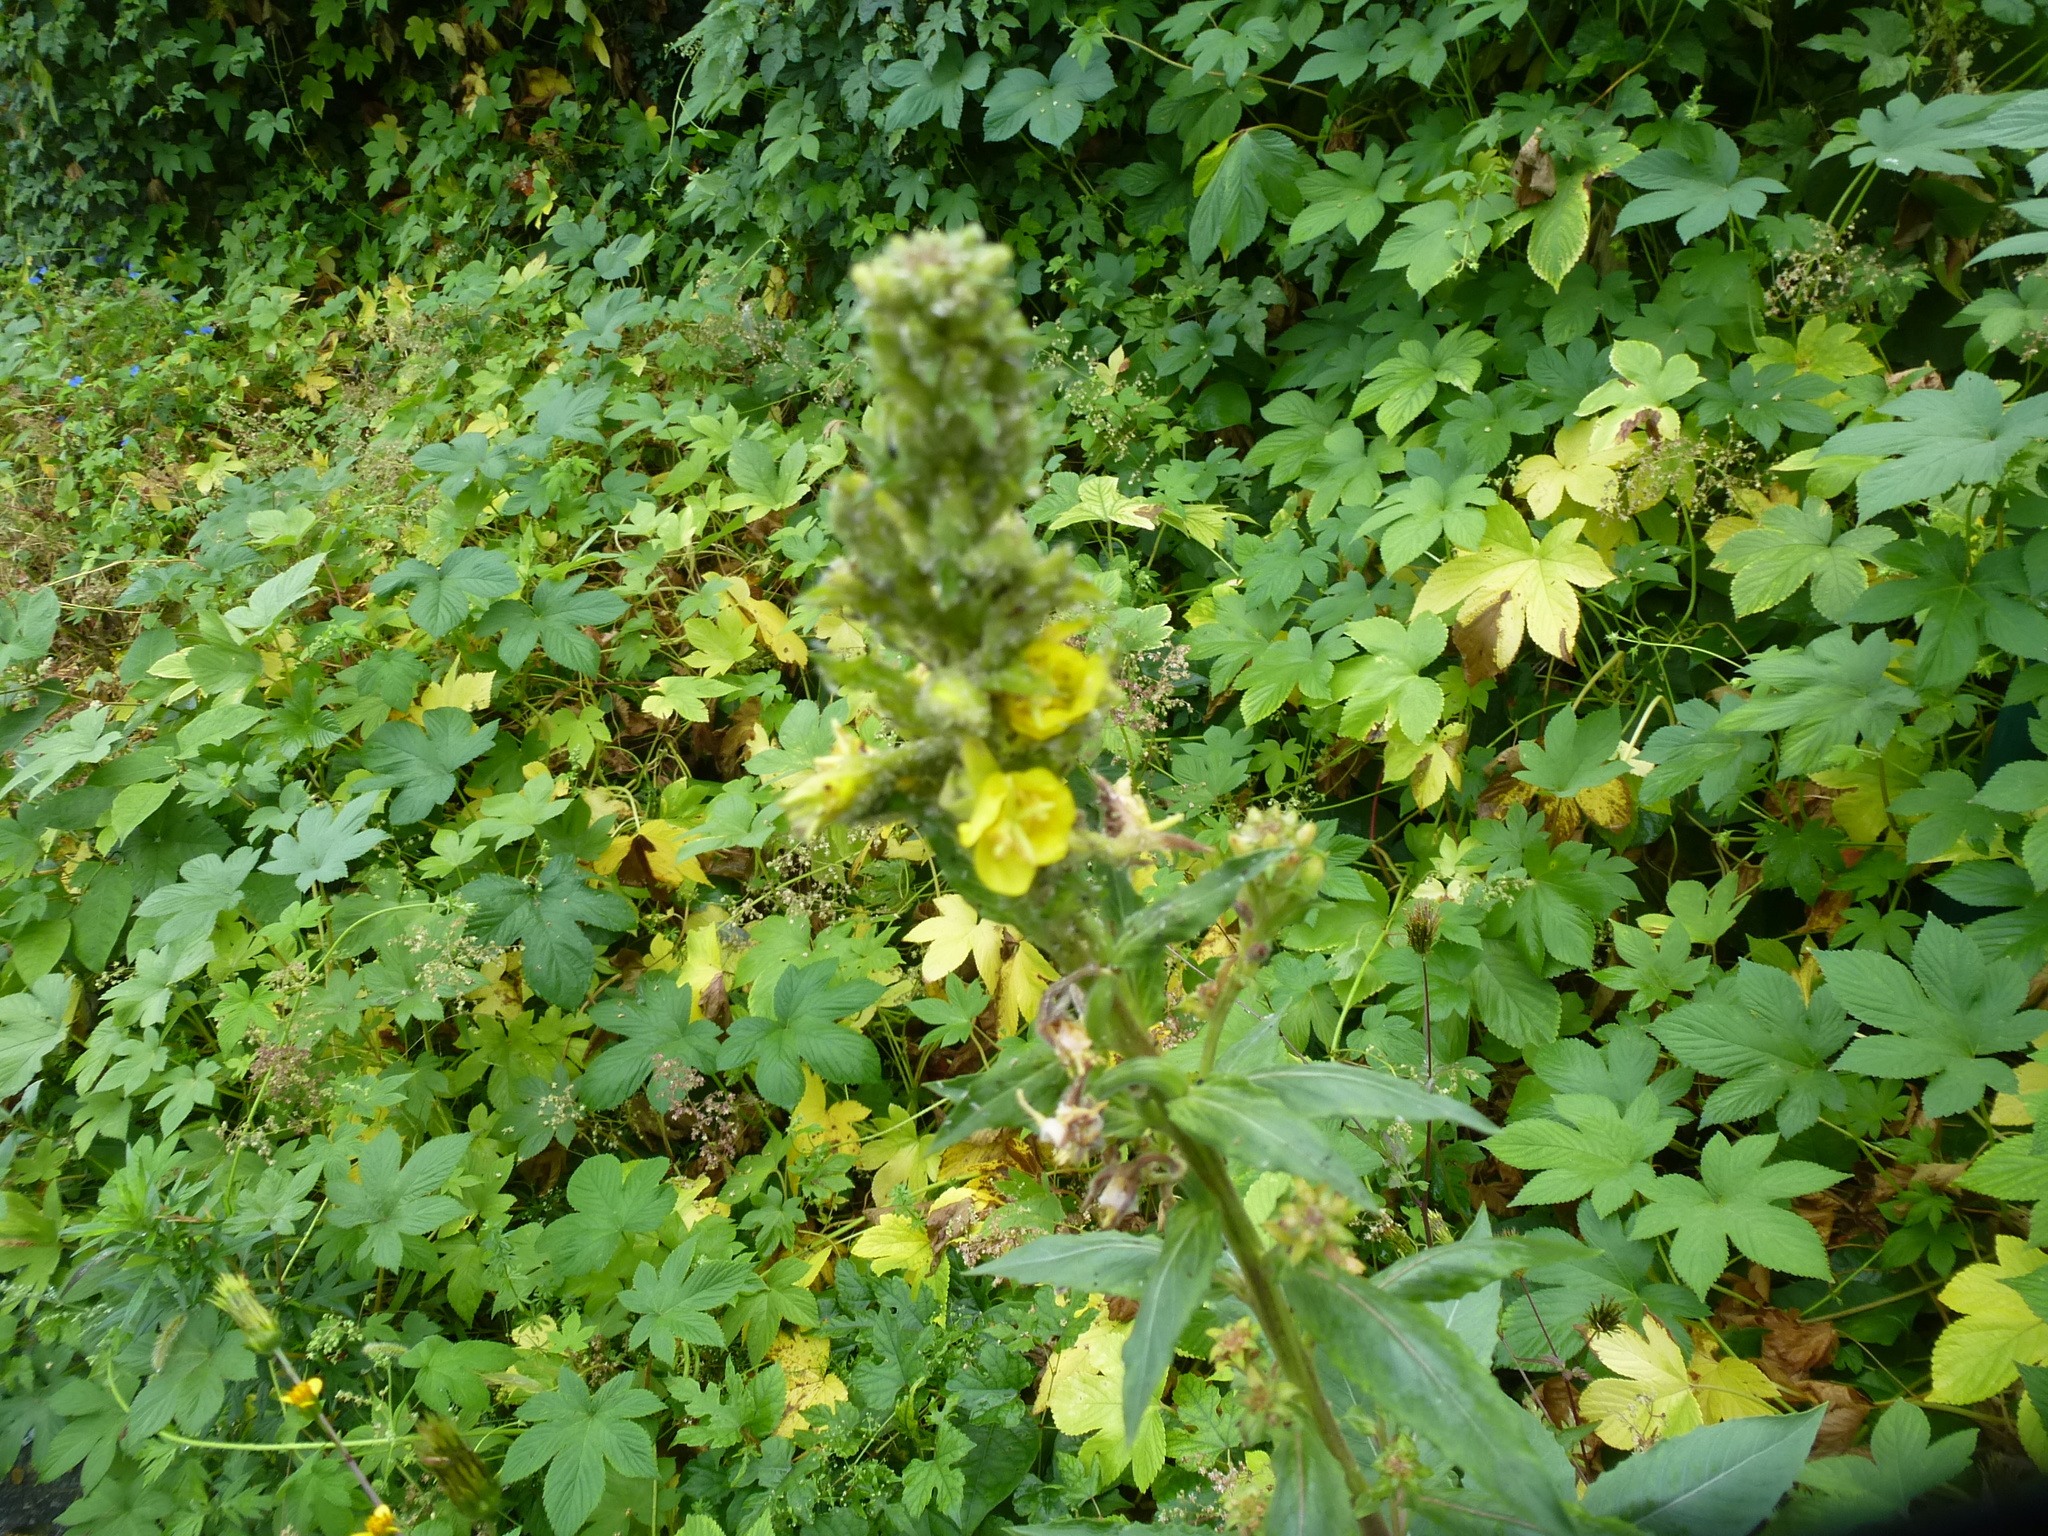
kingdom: Plantae
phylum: Tracheophyta
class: Magnoliopsida
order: Myrtales
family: Onagraceae
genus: Oenothera
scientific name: Oenothera biennis
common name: Common evening-primrose
